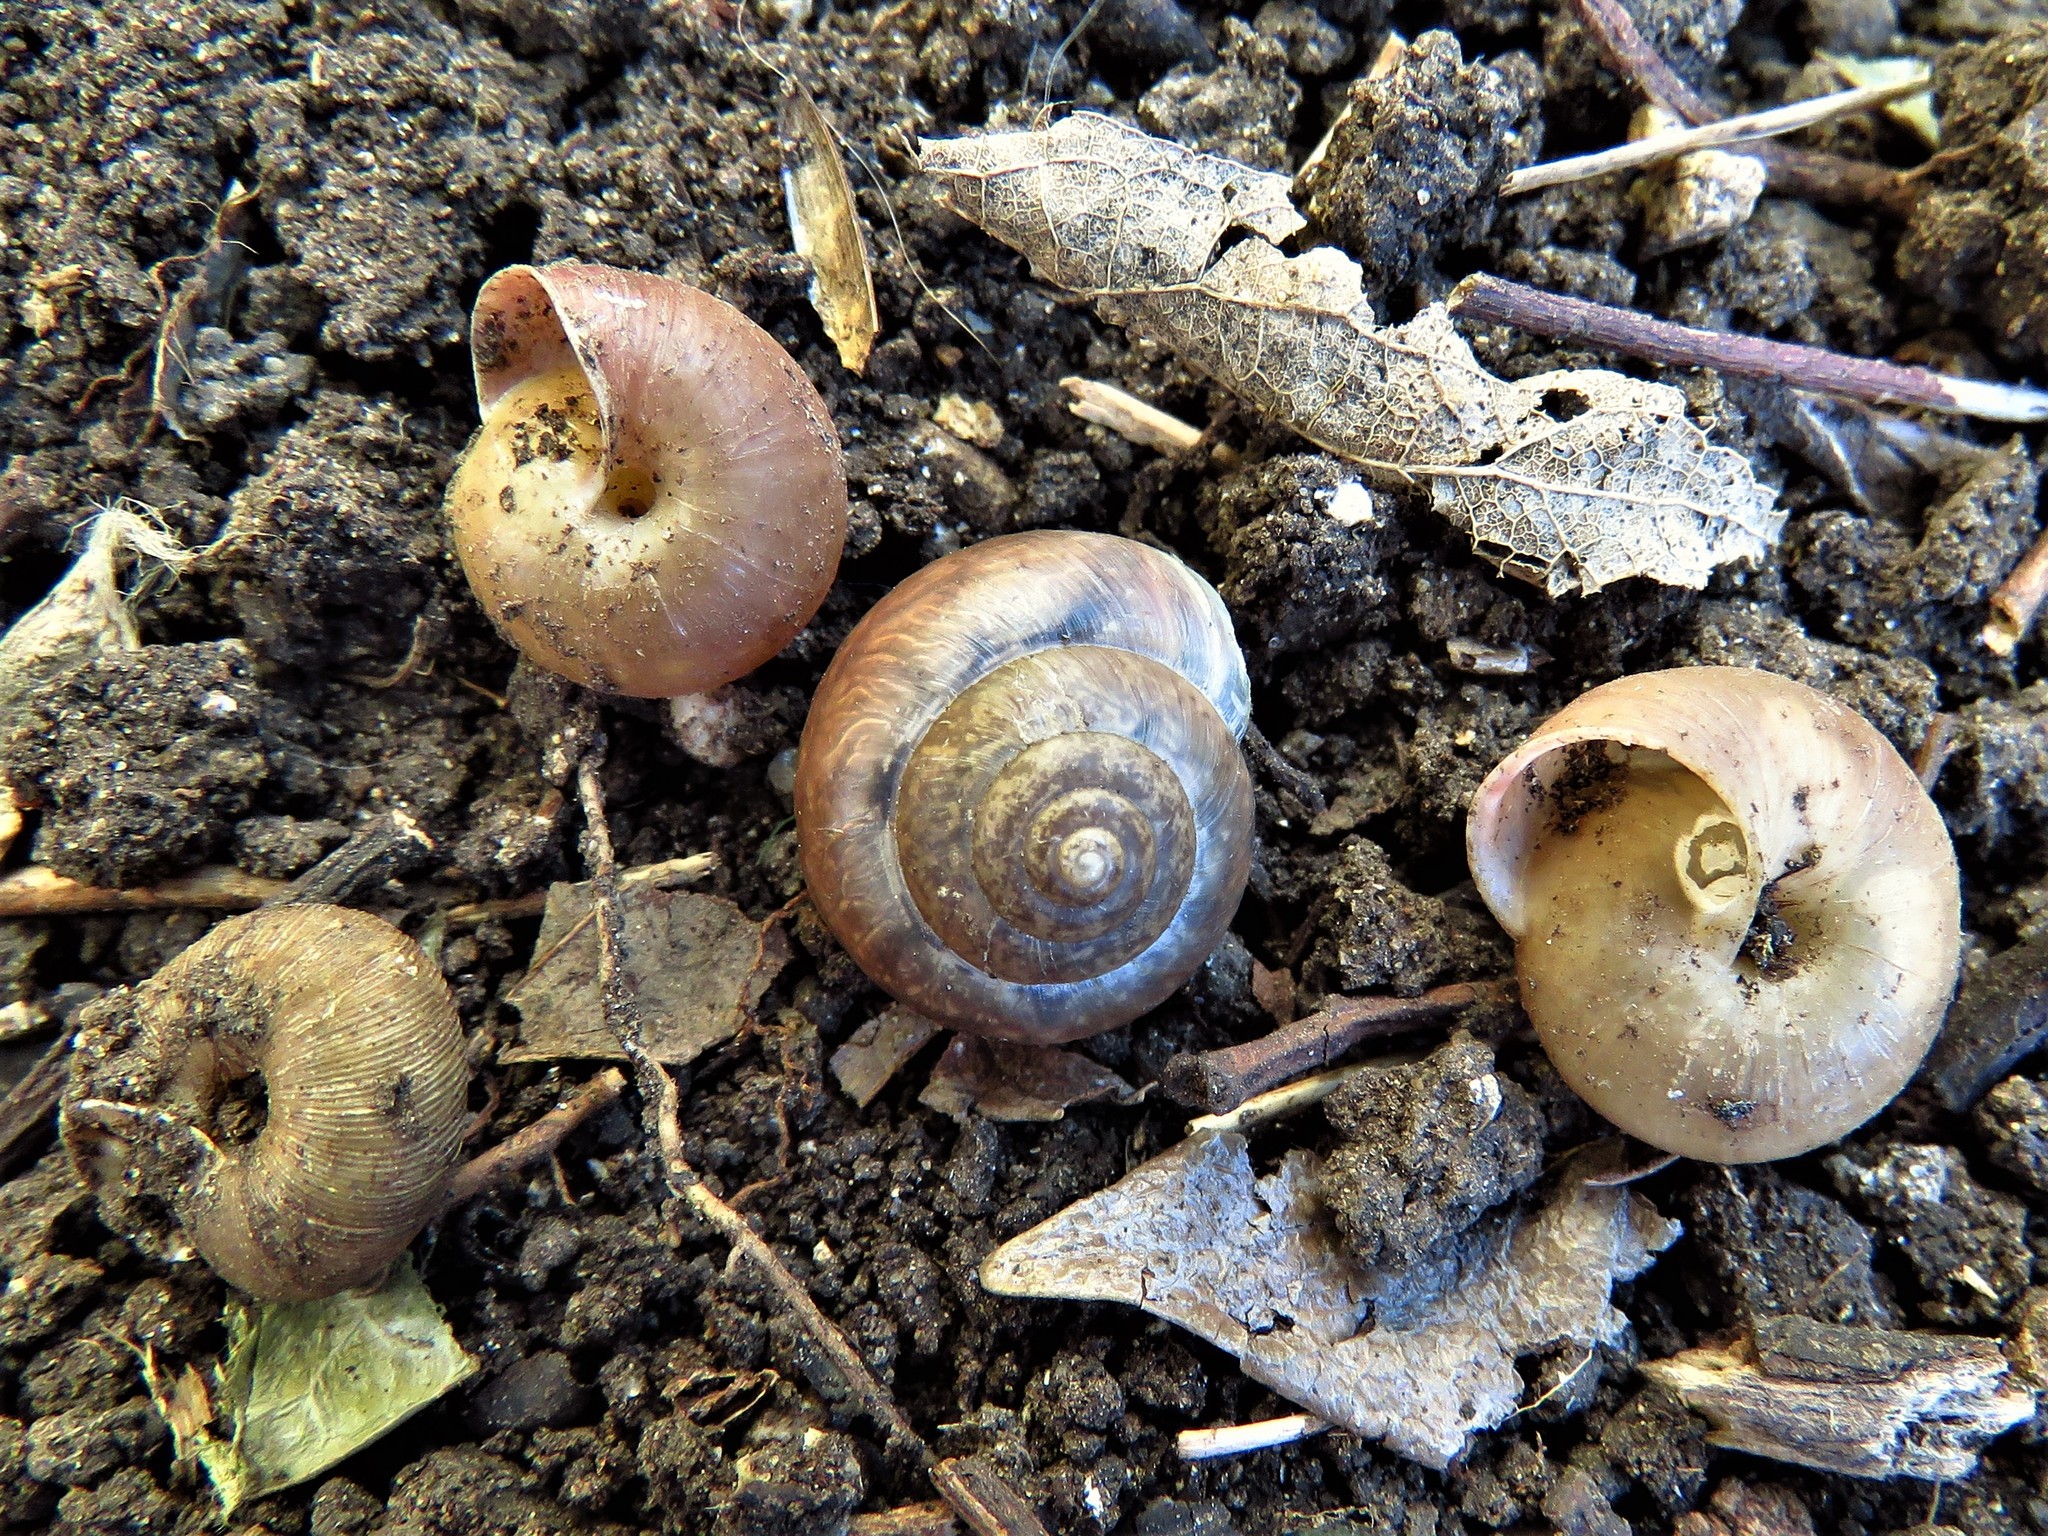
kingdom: Animalia
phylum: Mollusca
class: Gastropoda
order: Stylommatophora
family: Camaenidae
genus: Bradybaena
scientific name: Bradybaena similaris
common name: Asian trampsnail
